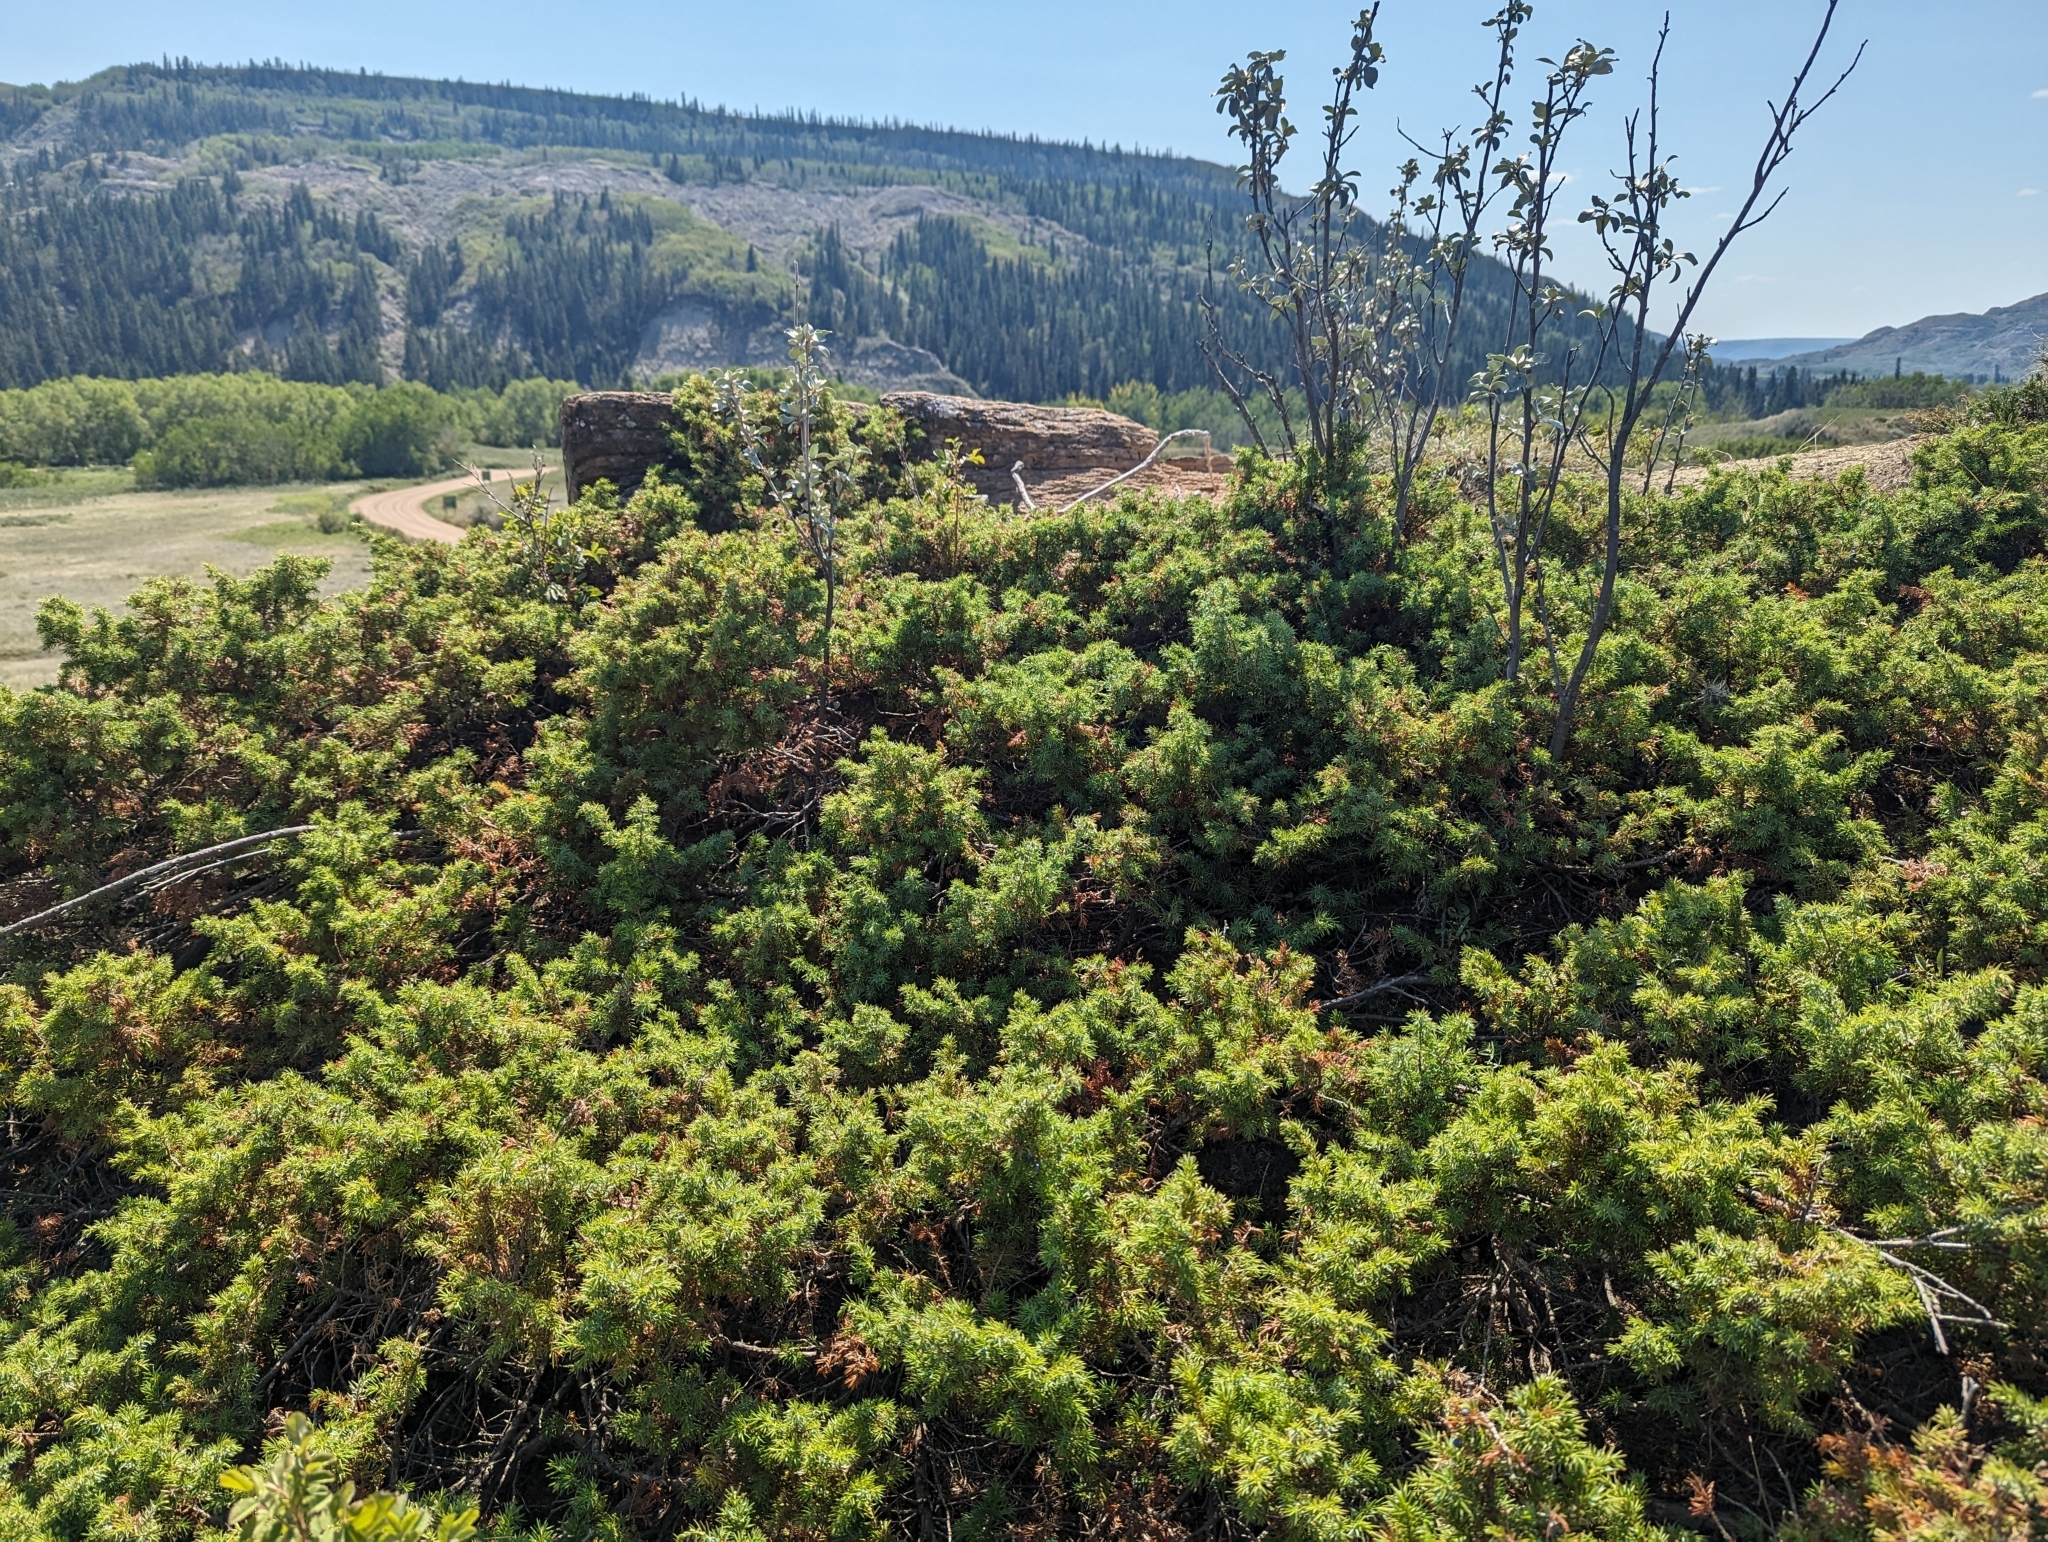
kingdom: Plantae
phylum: Tracheophyta
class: Pinopsida
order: Pinales
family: Cupressaceae
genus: Juniperus
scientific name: Juniperus communis
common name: Common juniper
